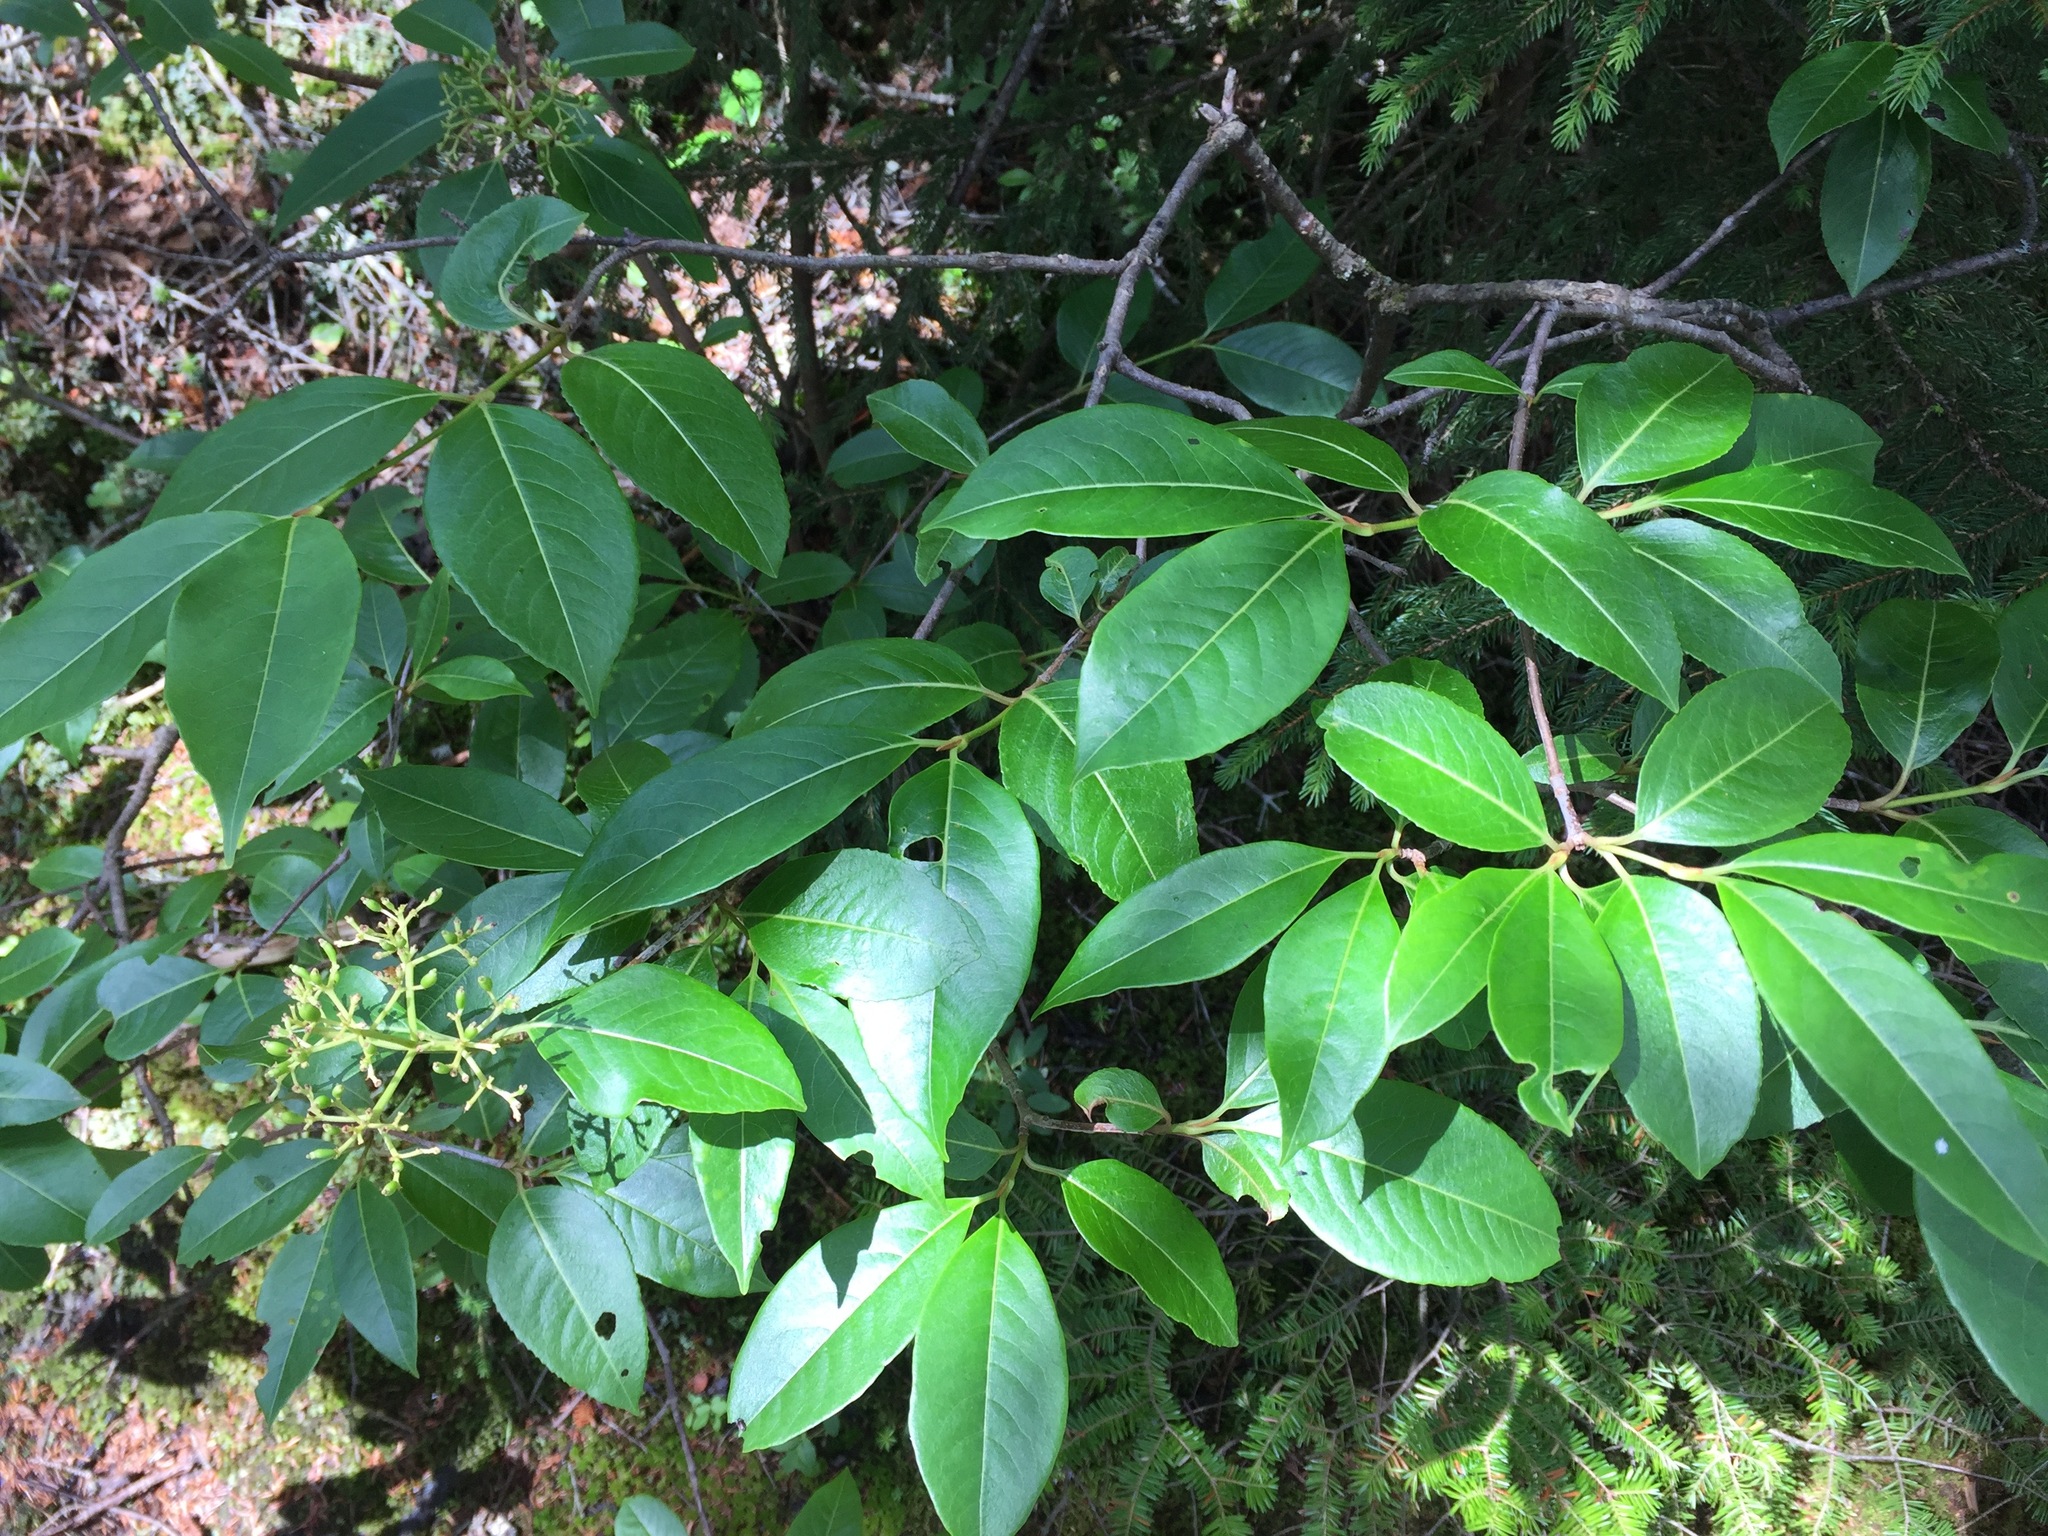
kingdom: Plantae
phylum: Tracheophyta
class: Magnoliopsida
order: Dipsacales
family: Viburnaceae
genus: Viburnum
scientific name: Viburnum cassinoides
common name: Swamp haw
